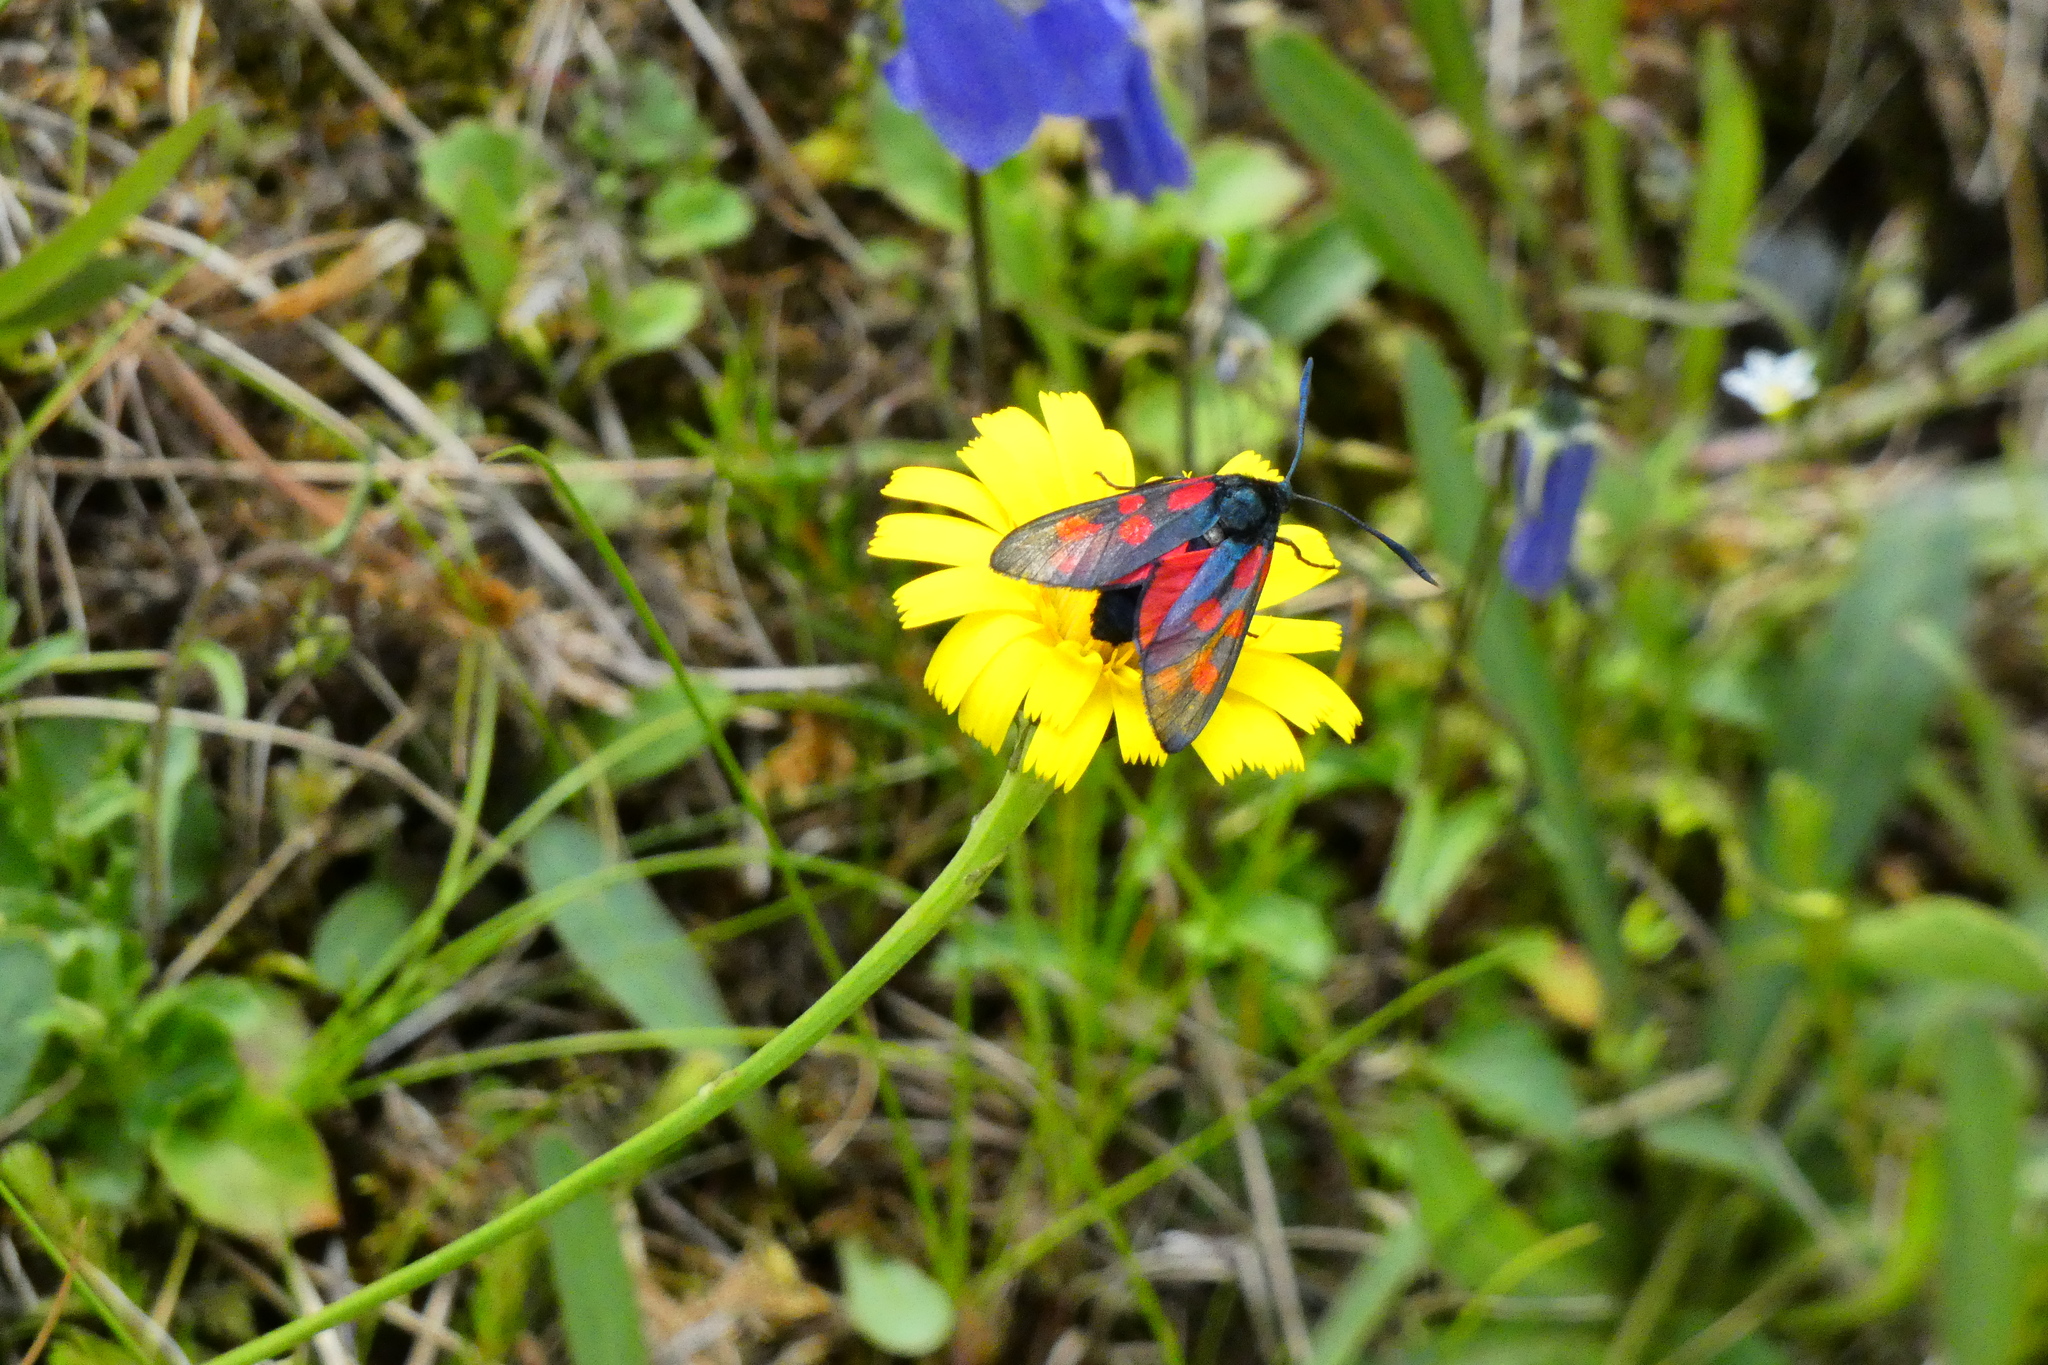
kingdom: Animalia
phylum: Arthropoda
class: Insecta
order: Lepidoptera
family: Zygaenidae
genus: Zygaena
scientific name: Zygaena filipendulae
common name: Six-spot burnet
